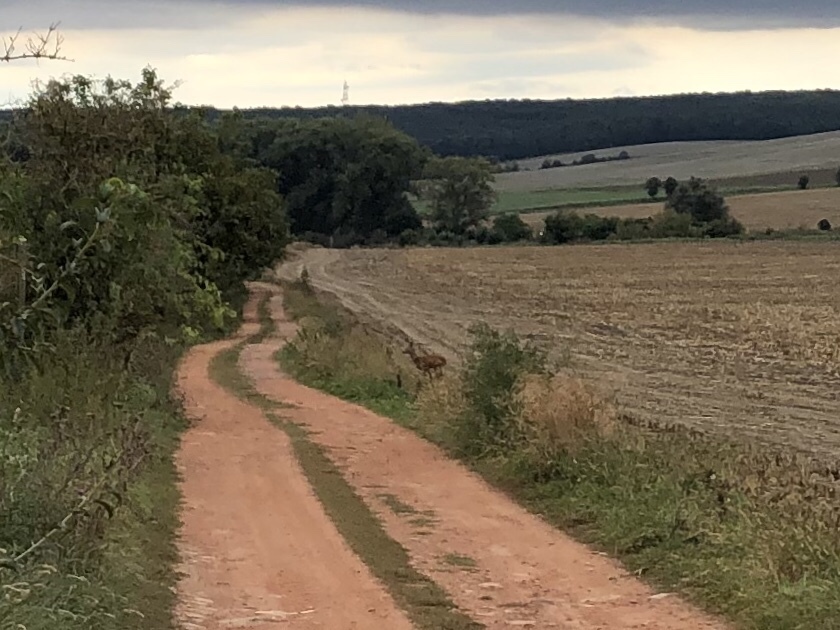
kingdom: Animalia
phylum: Chordata
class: Mammalia
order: Artiodactyla
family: Cervidae
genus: Capreolus
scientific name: Capreolus capreolus
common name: Western roe deer
